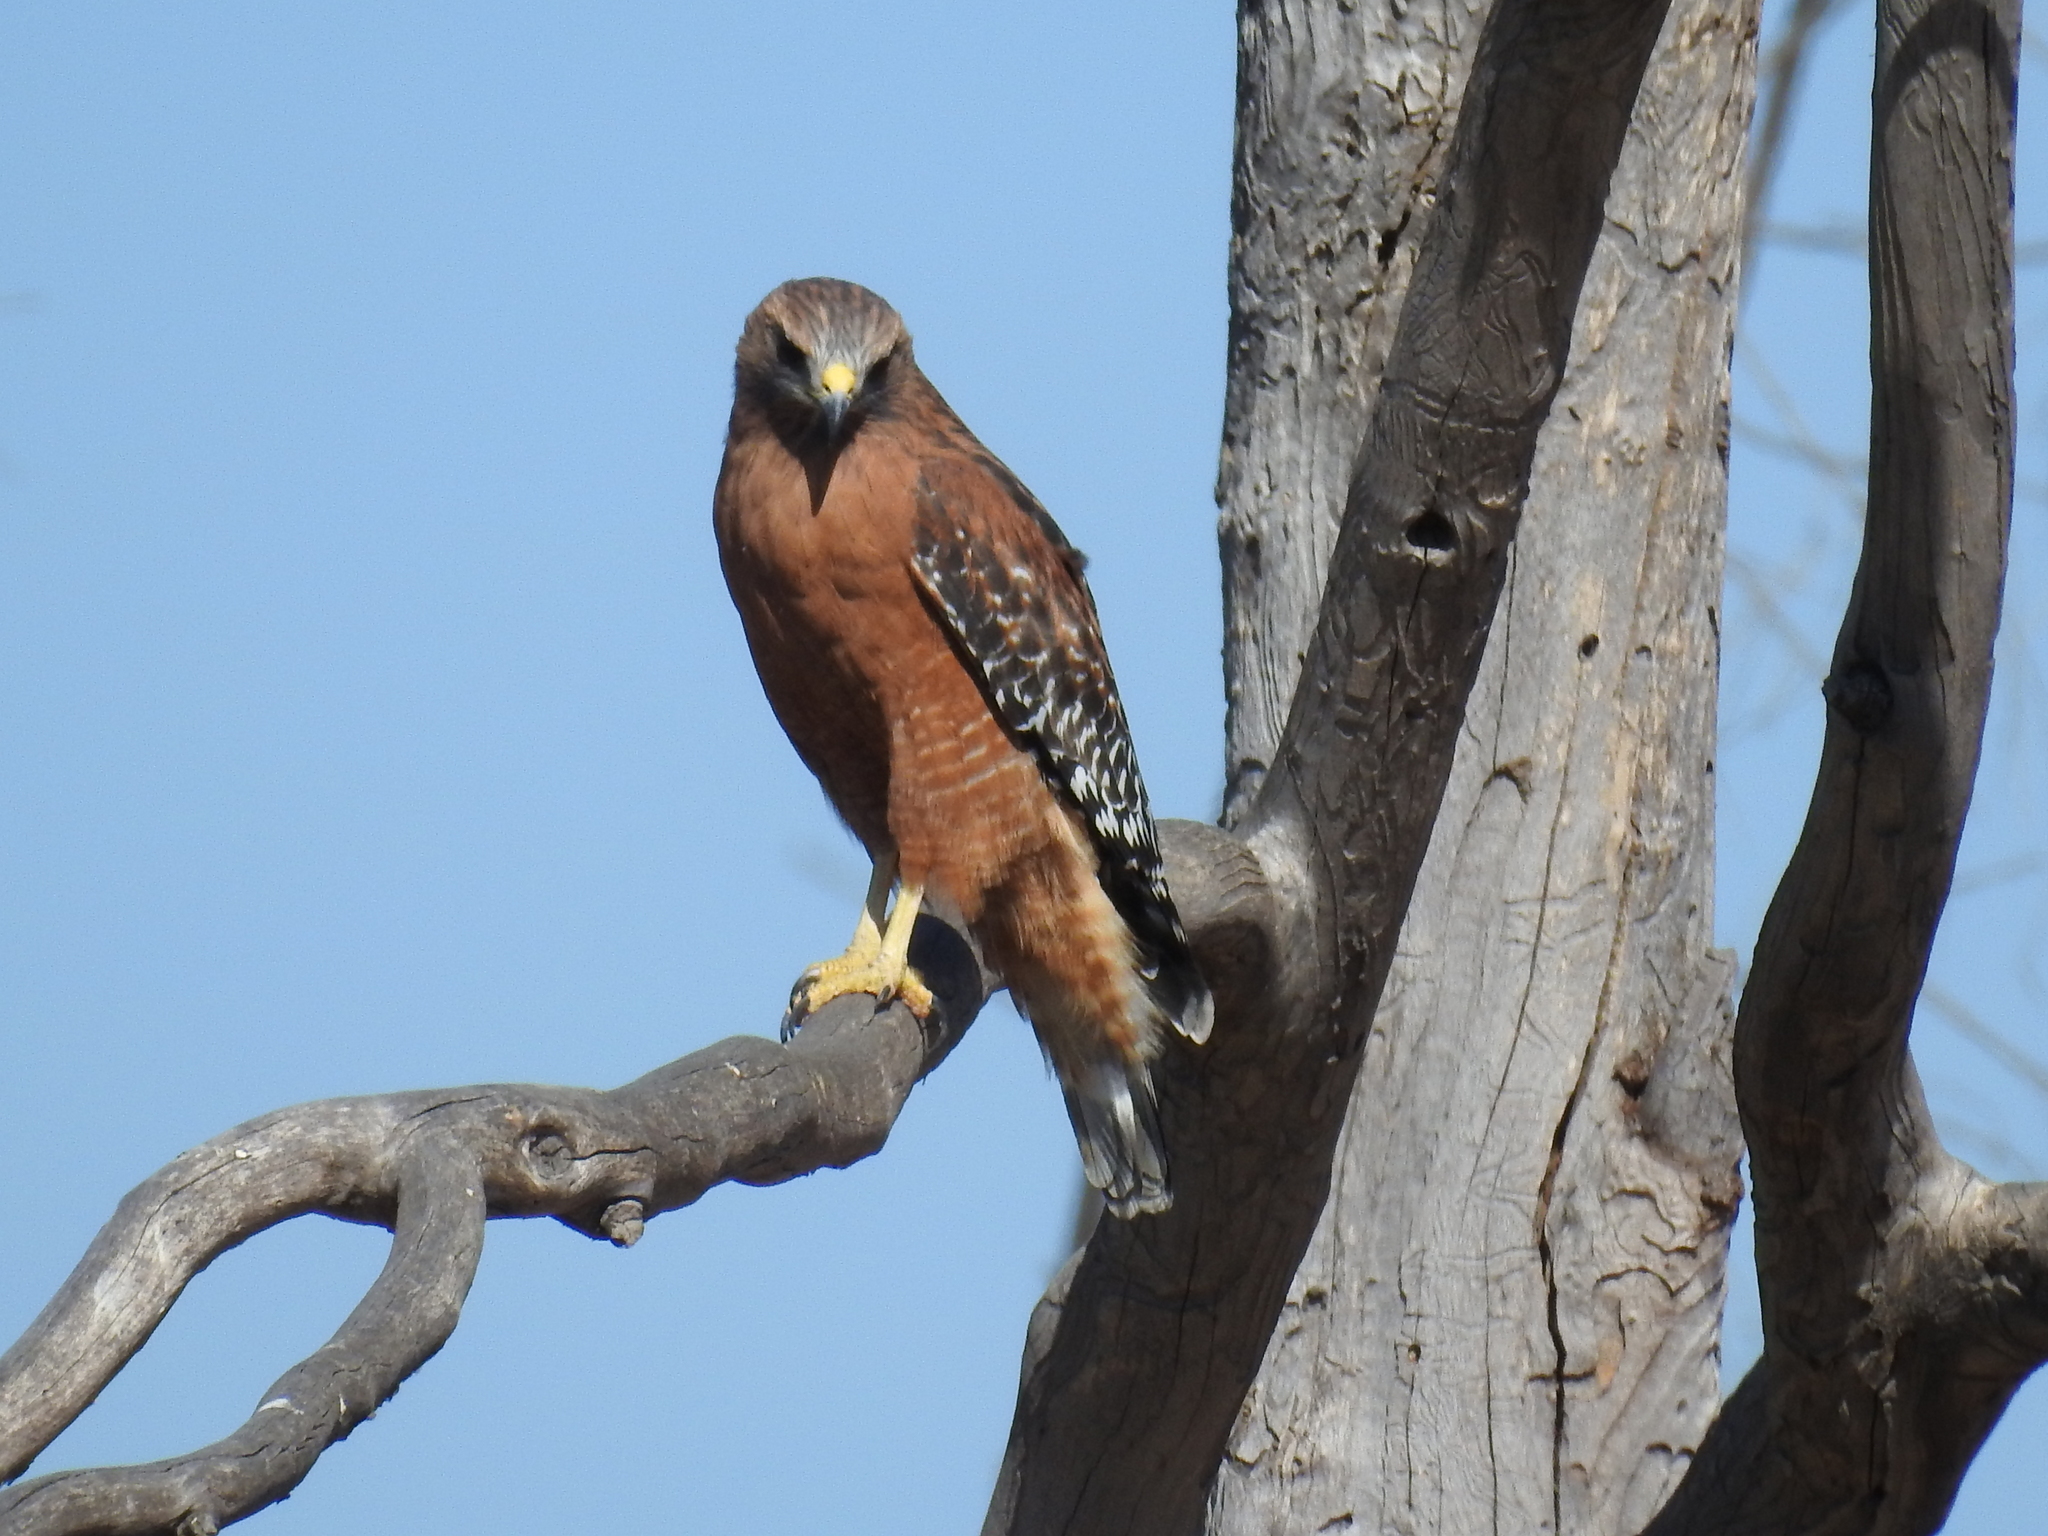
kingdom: Animalia
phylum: Chordata
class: Aves
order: Accipitriformes
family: Accipitridae
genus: Buteo
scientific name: Buteo lineatus
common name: Red-shouldered hawk
